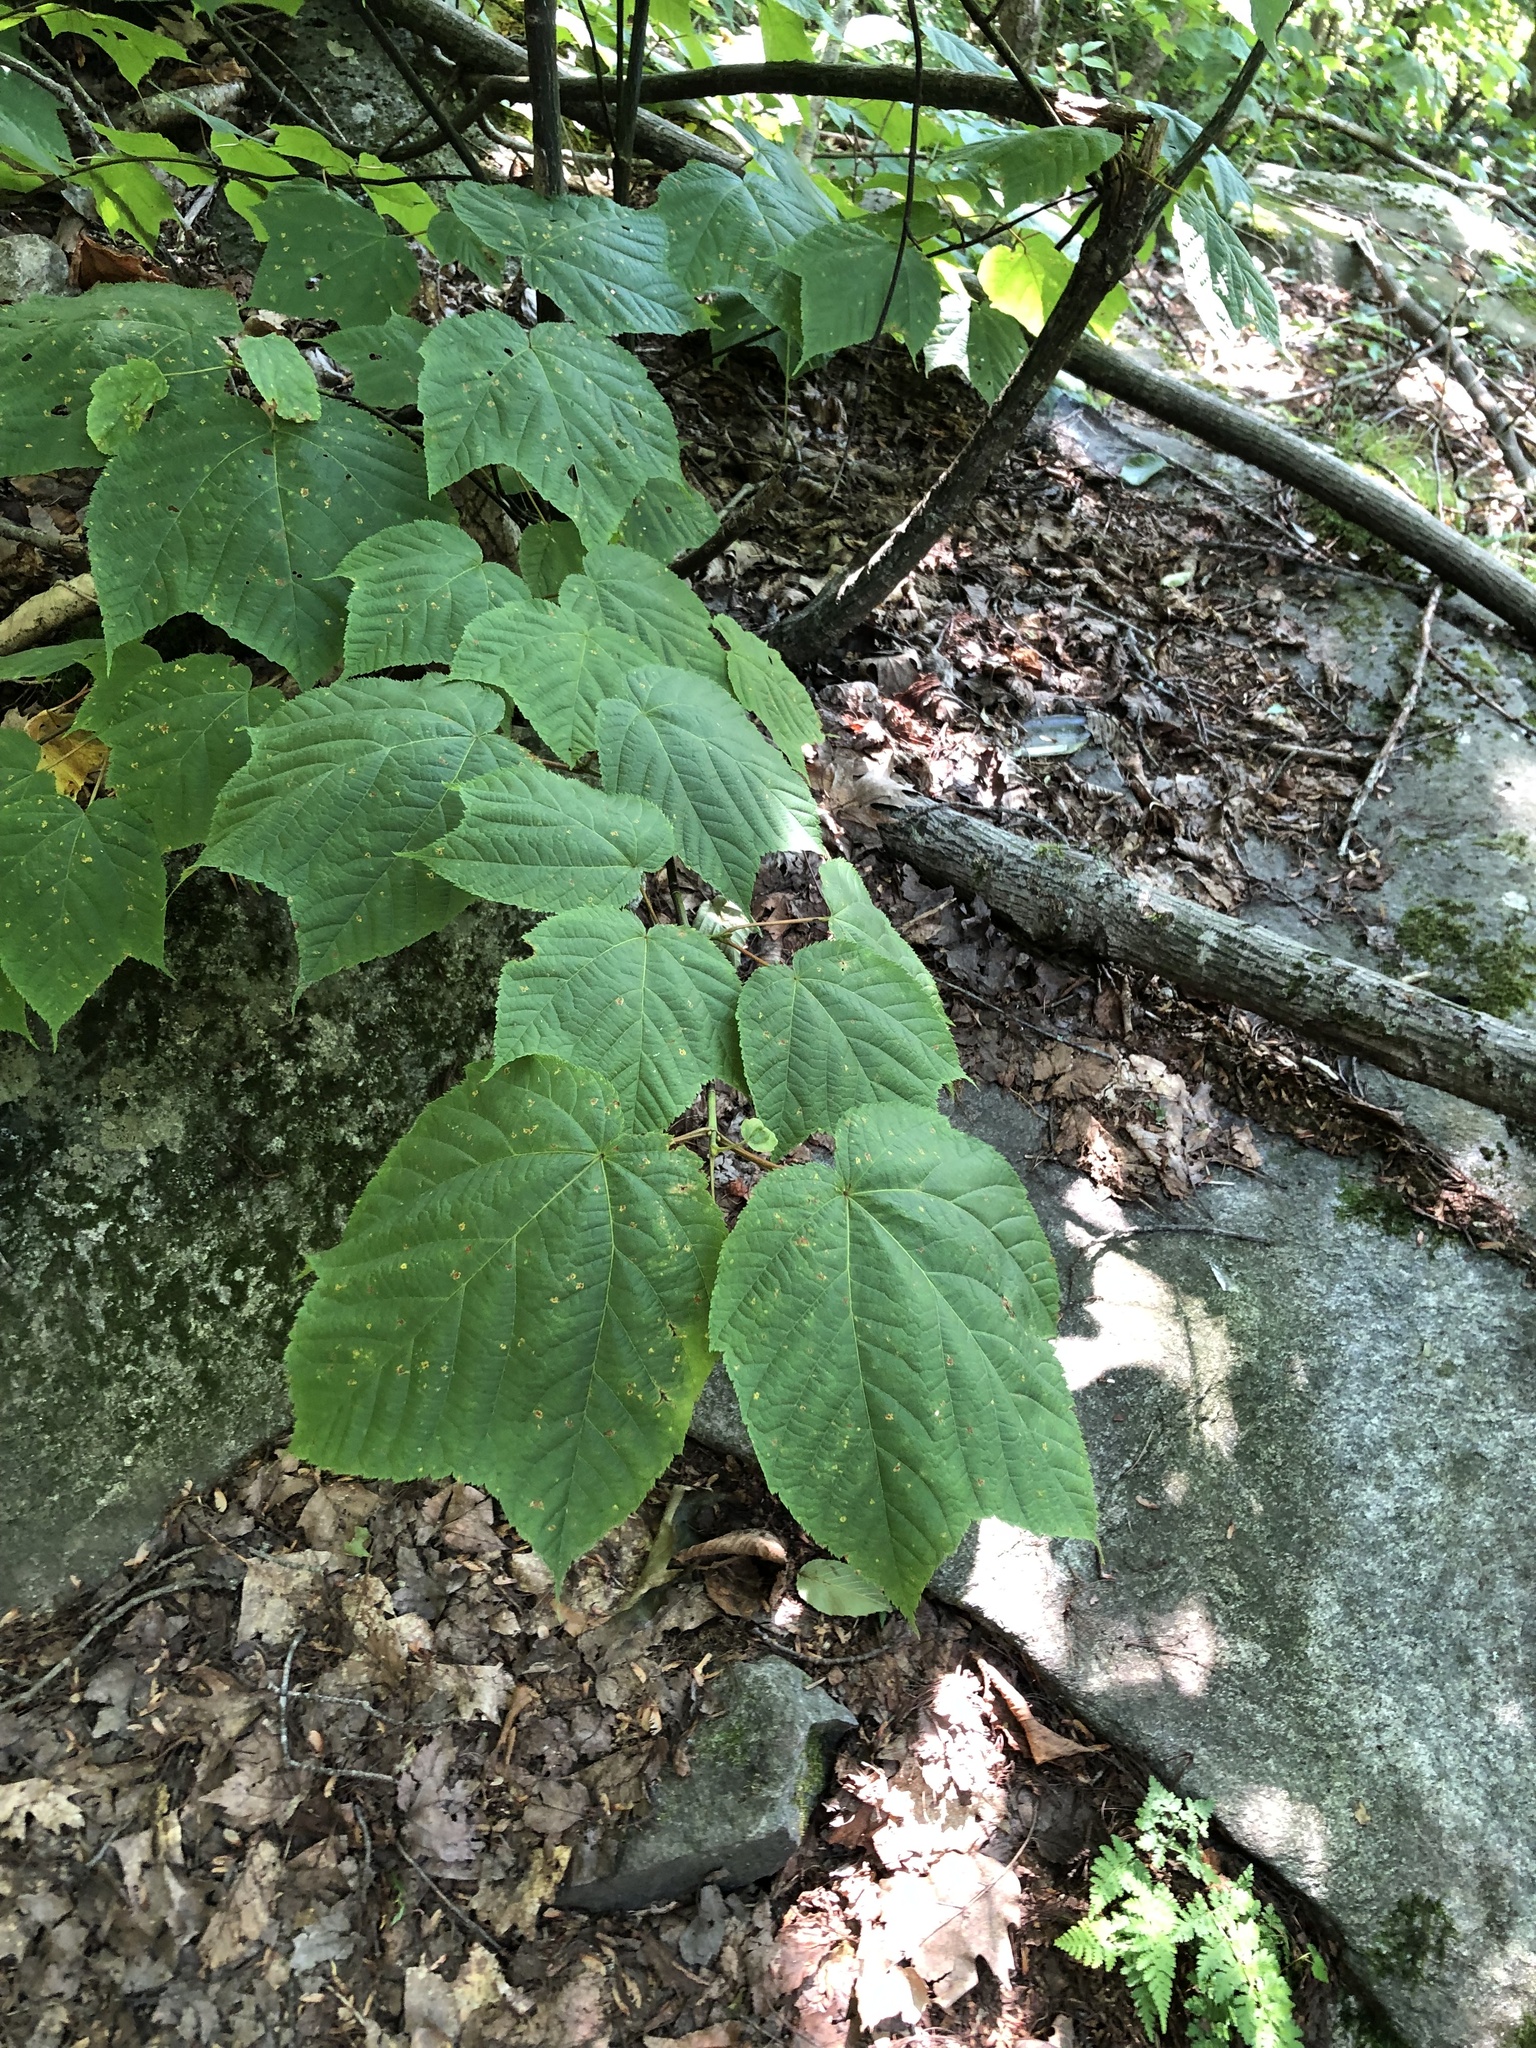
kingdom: Plantae
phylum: Tracheophyta
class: Magnoliopsida
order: Sapindales
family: Sapindaceae
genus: Acer
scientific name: Acer pensylvanicum
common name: Moosewood
